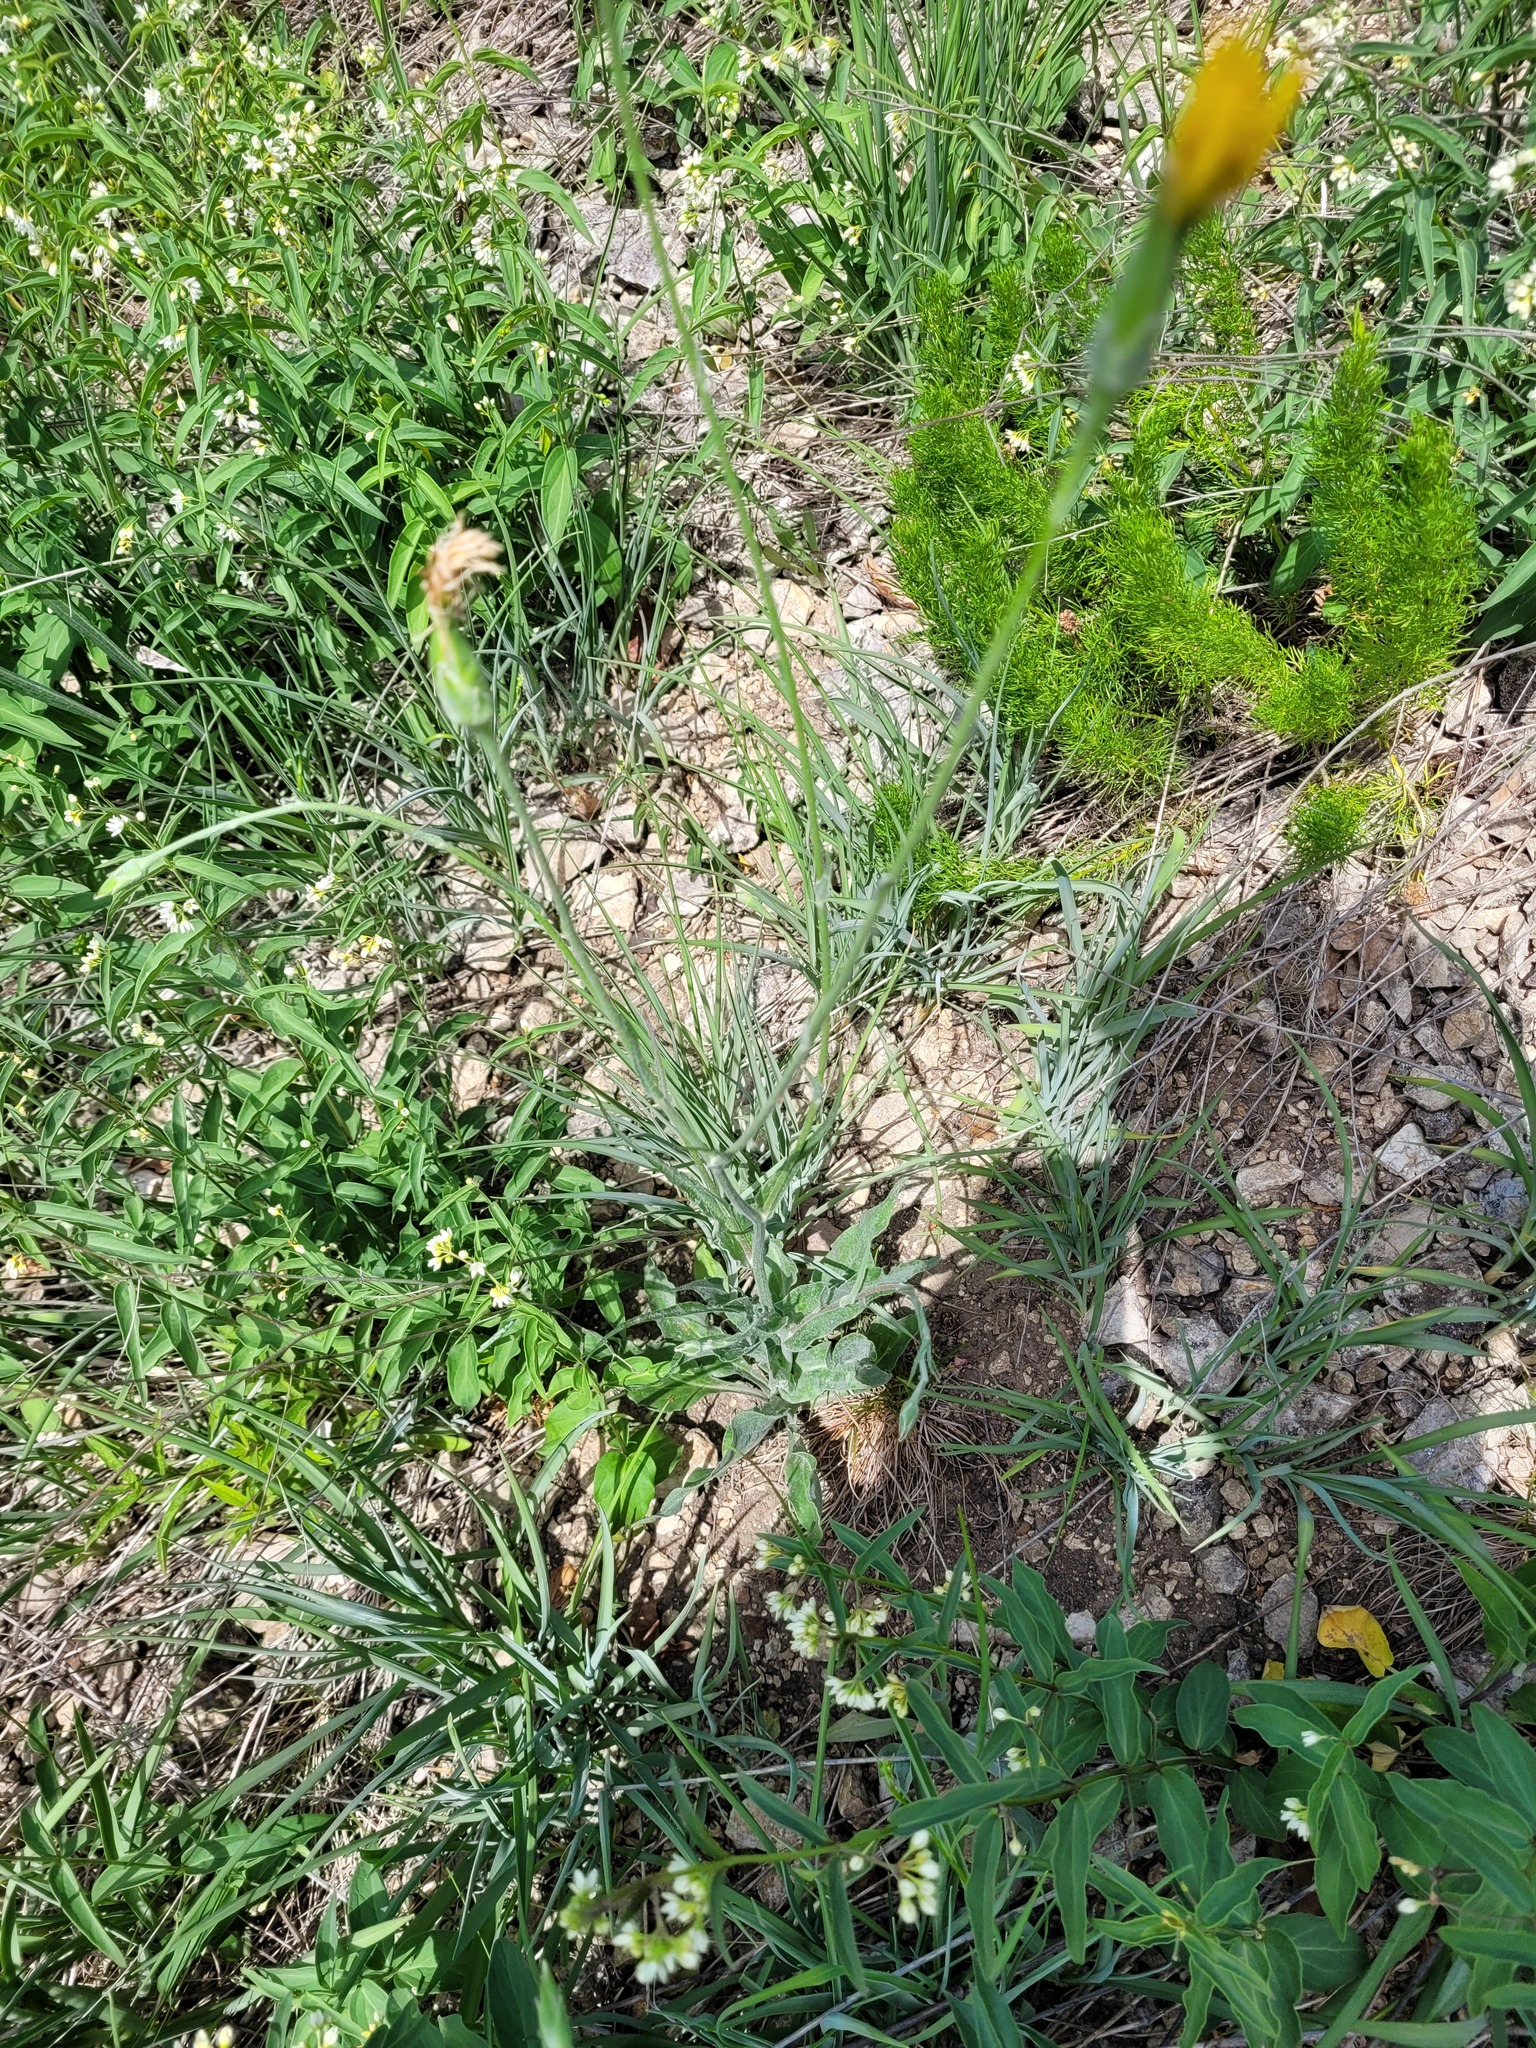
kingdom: Plantae
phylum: Tracheophyta
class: Magnoliopsida
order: Asterales
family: Asteraceae
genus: Pseudopodospermum
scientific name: Pseudopodospermum hispanicum
